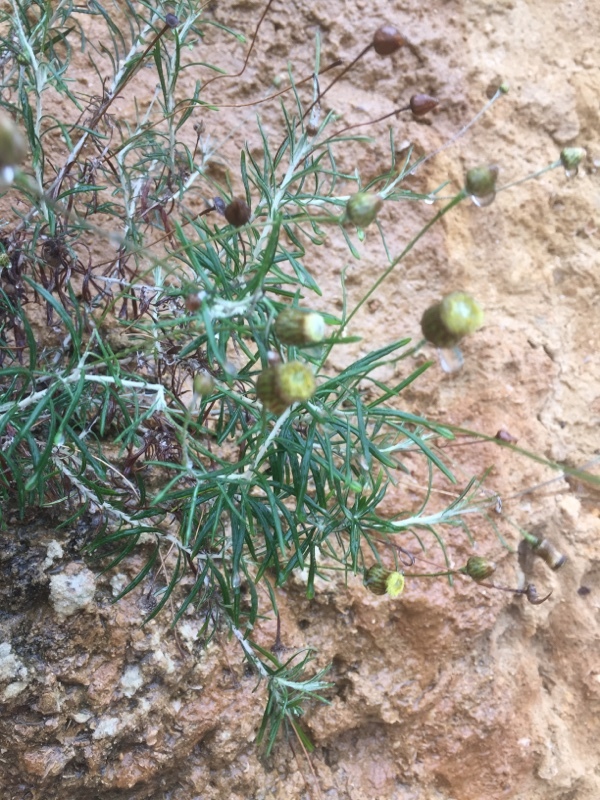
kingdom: Plantae
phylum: Tracheophyta
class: Magnoliopsida
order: Asterales
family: Asteraceae
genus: Phagnalon
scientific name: Phagnalon saxatile
